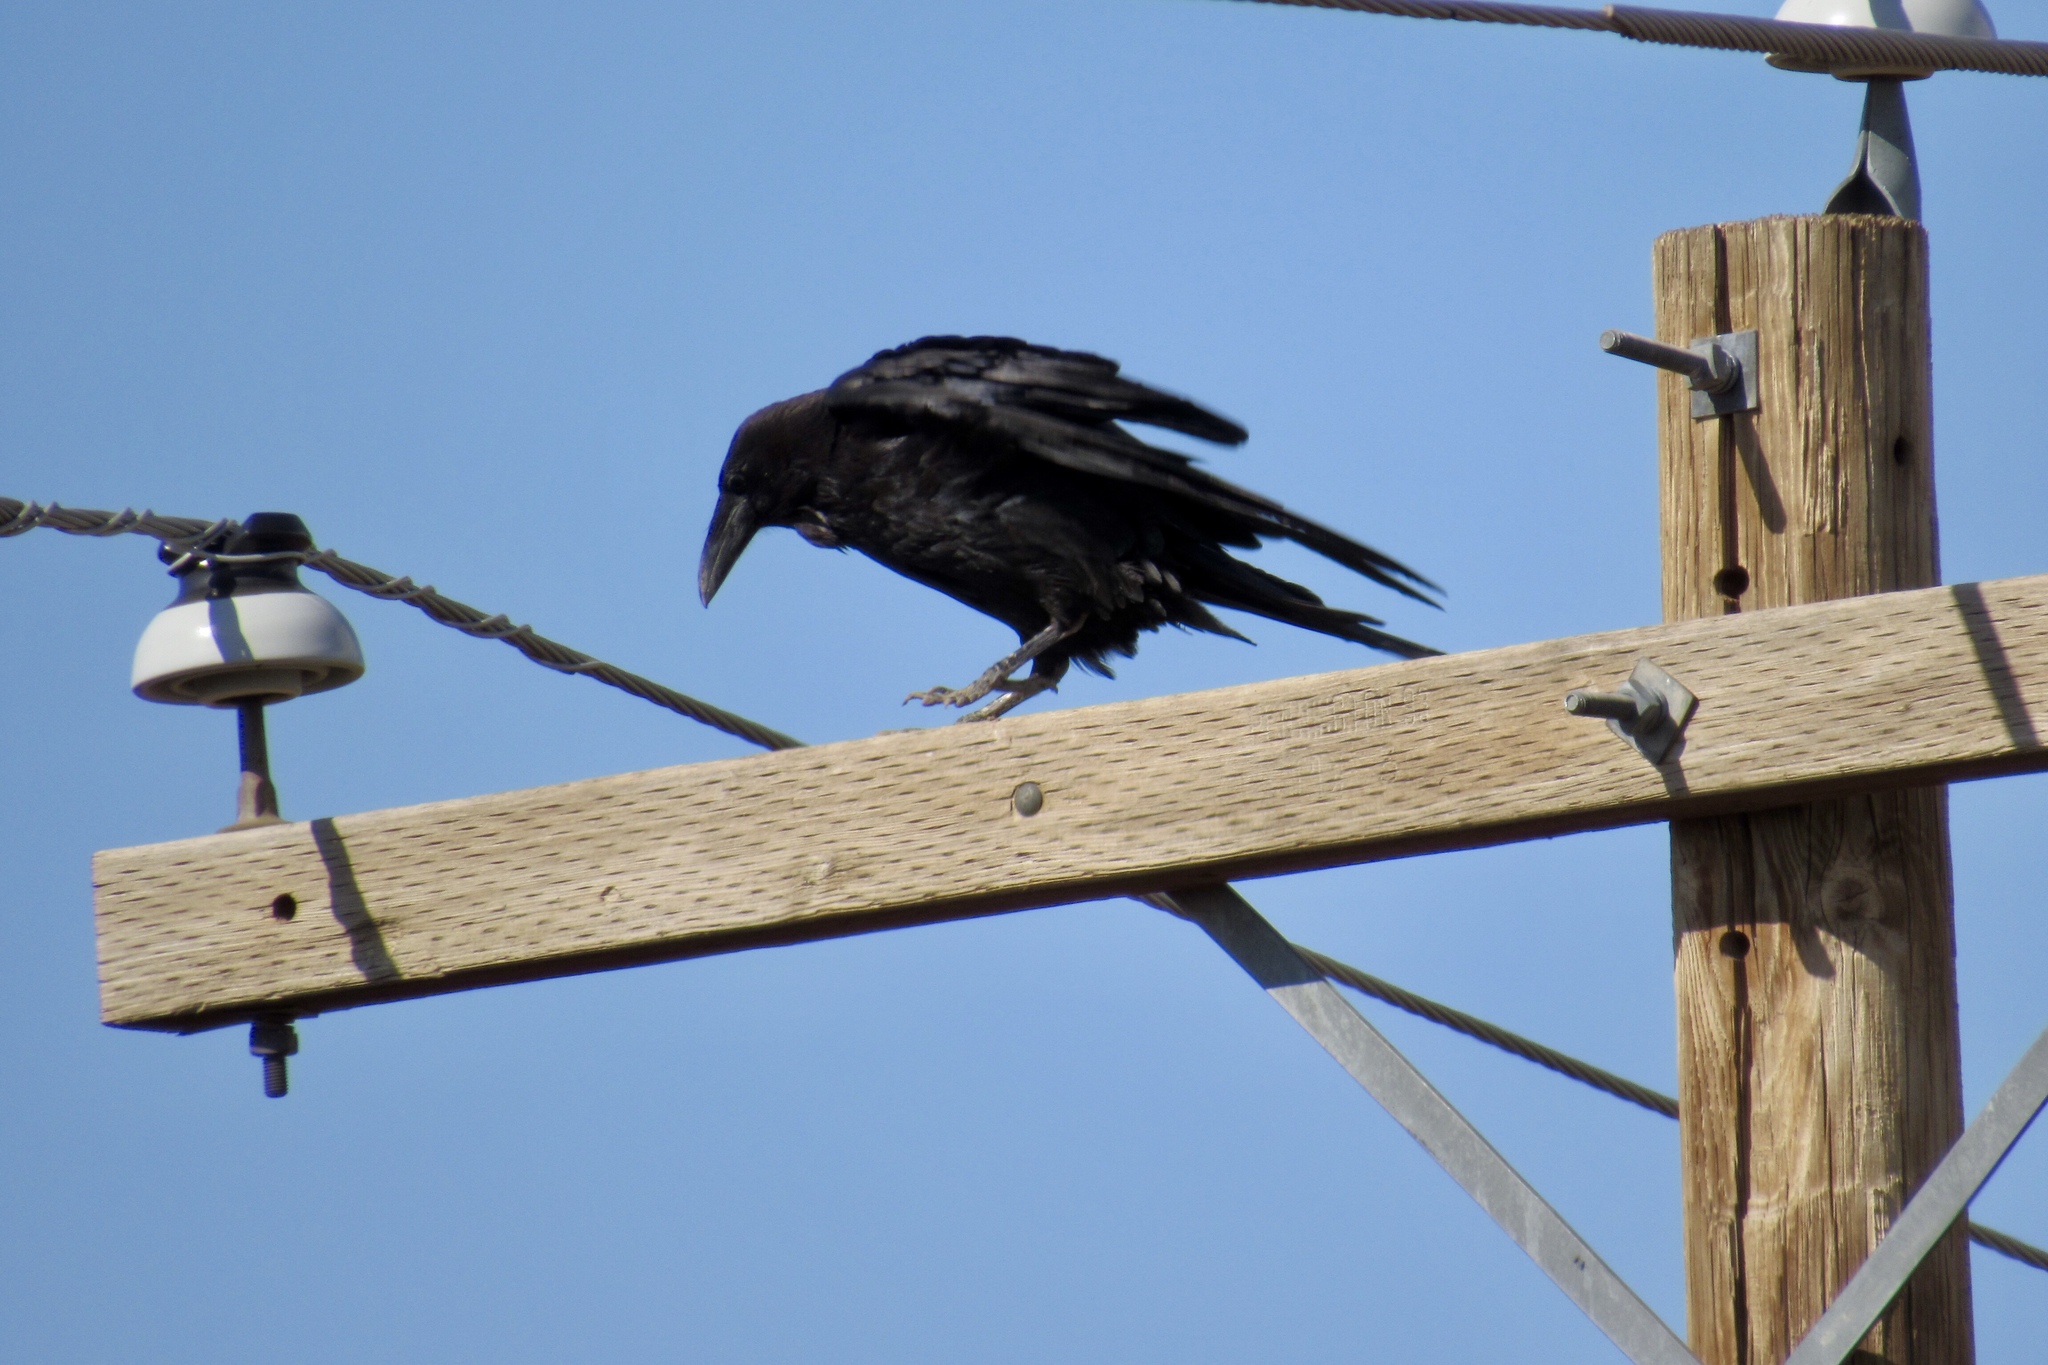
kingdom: Animalia
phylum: Chordata
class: Aves
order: Passeriformes
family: Corvidae
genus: Corvus
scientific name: Corvus corax
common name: Common raven
